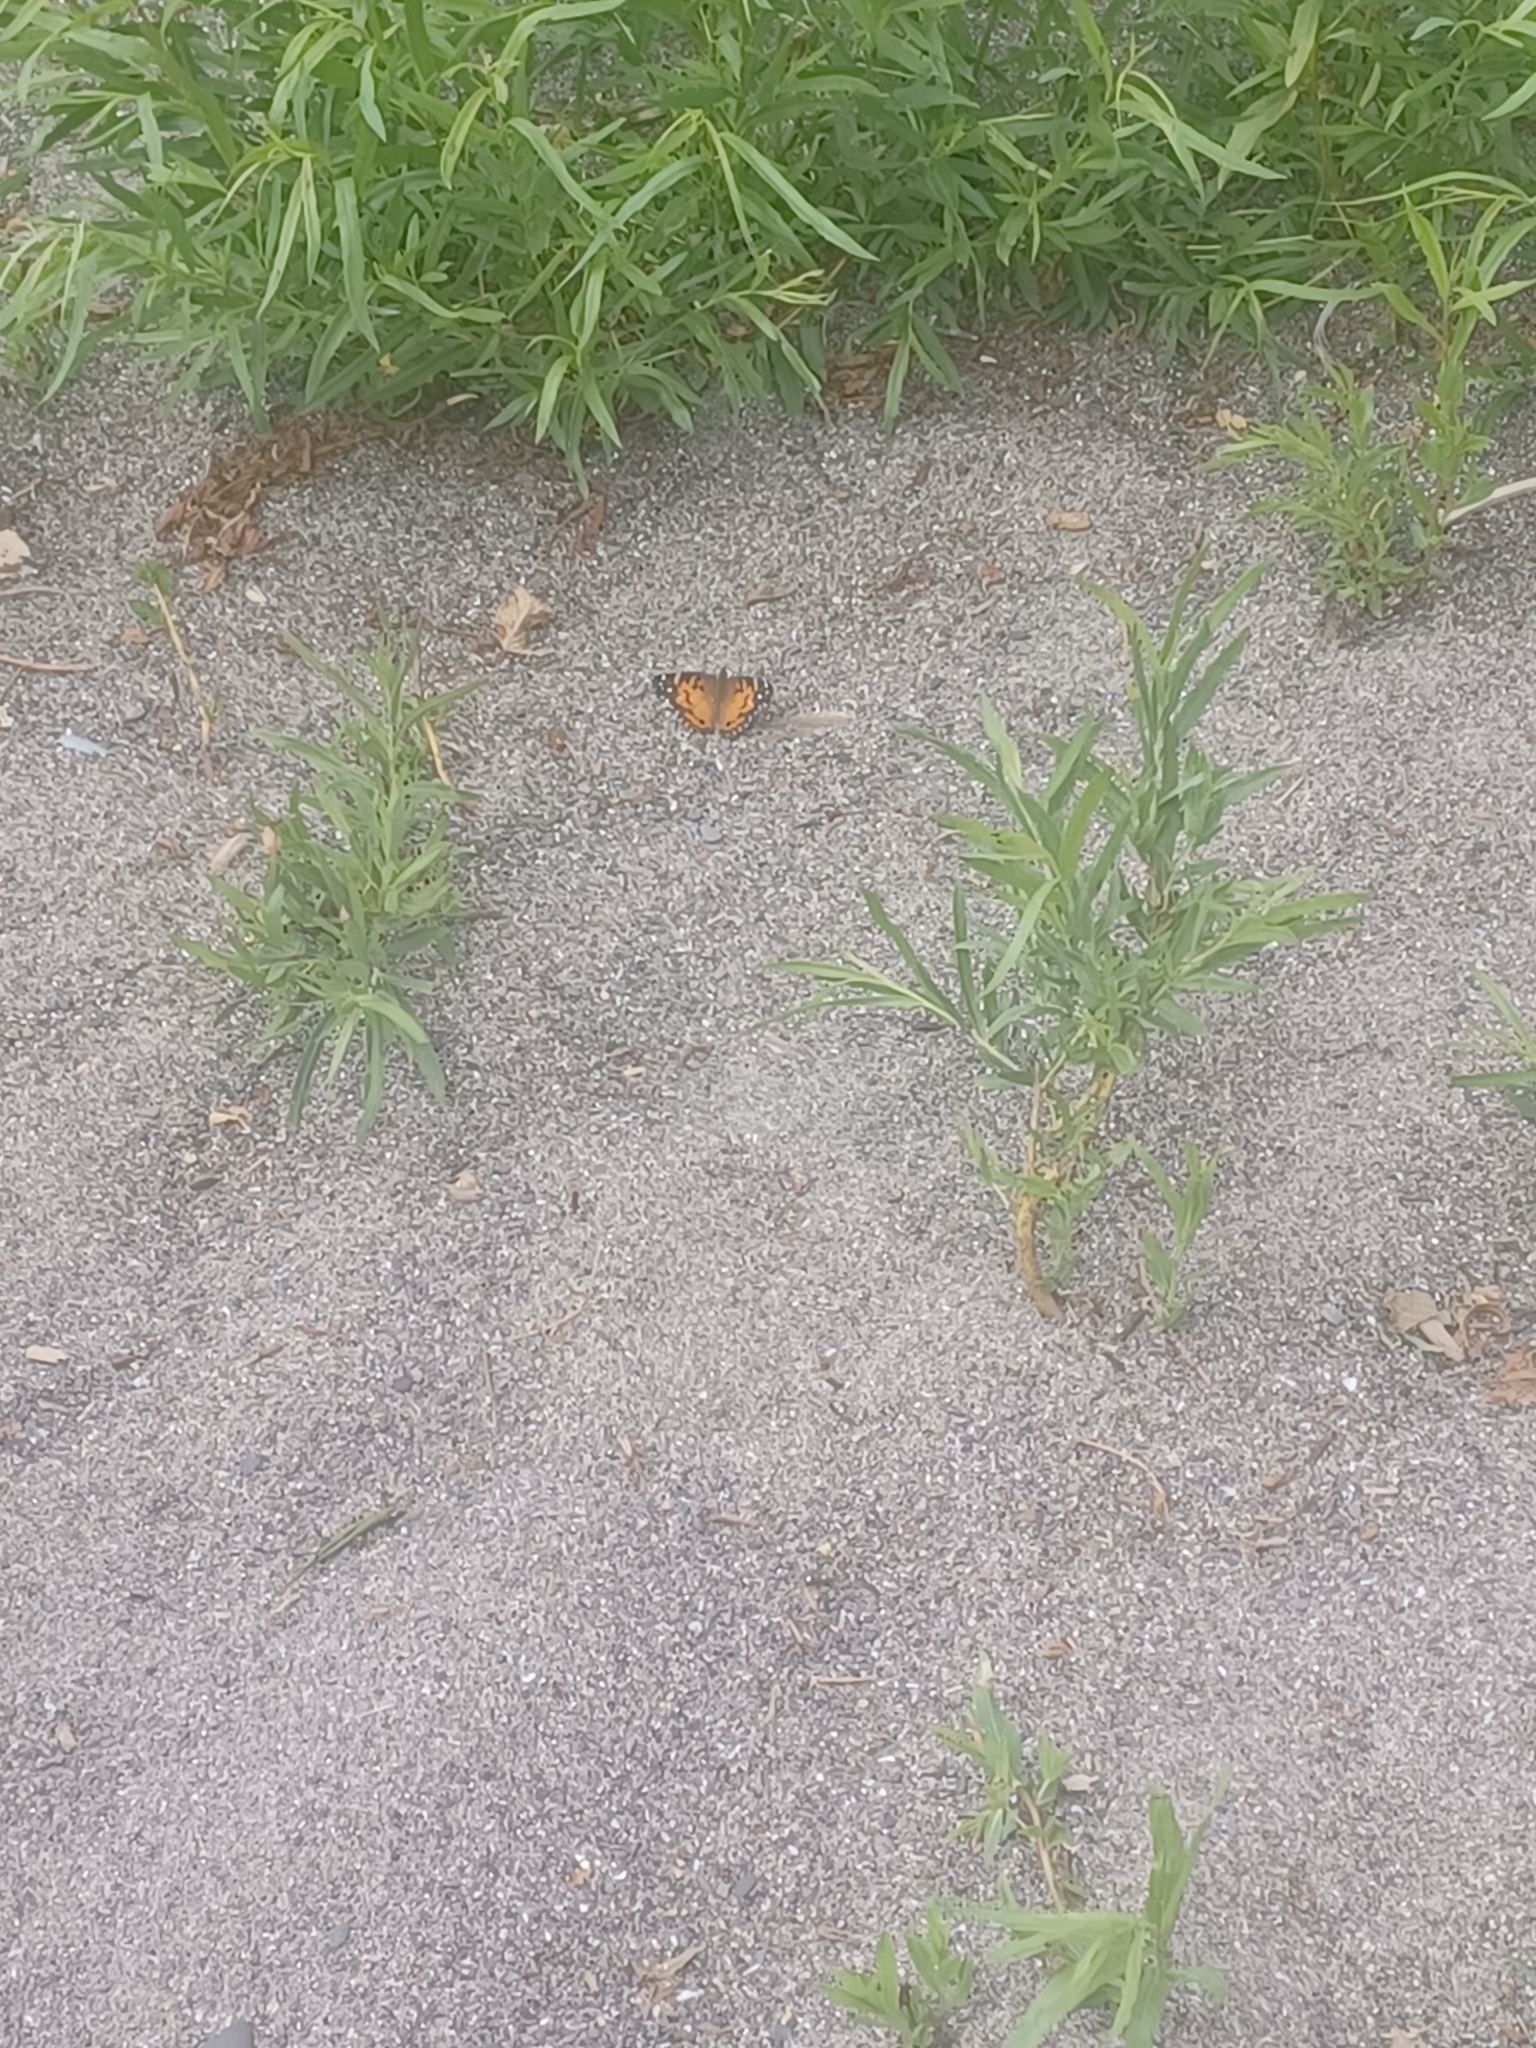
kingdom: Animalia
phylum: Arthropoda
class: Insecta
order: Lepidoptera
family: Nymphalidae
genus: Vanessa
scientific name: Vanessa virginiensis
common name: American lady
